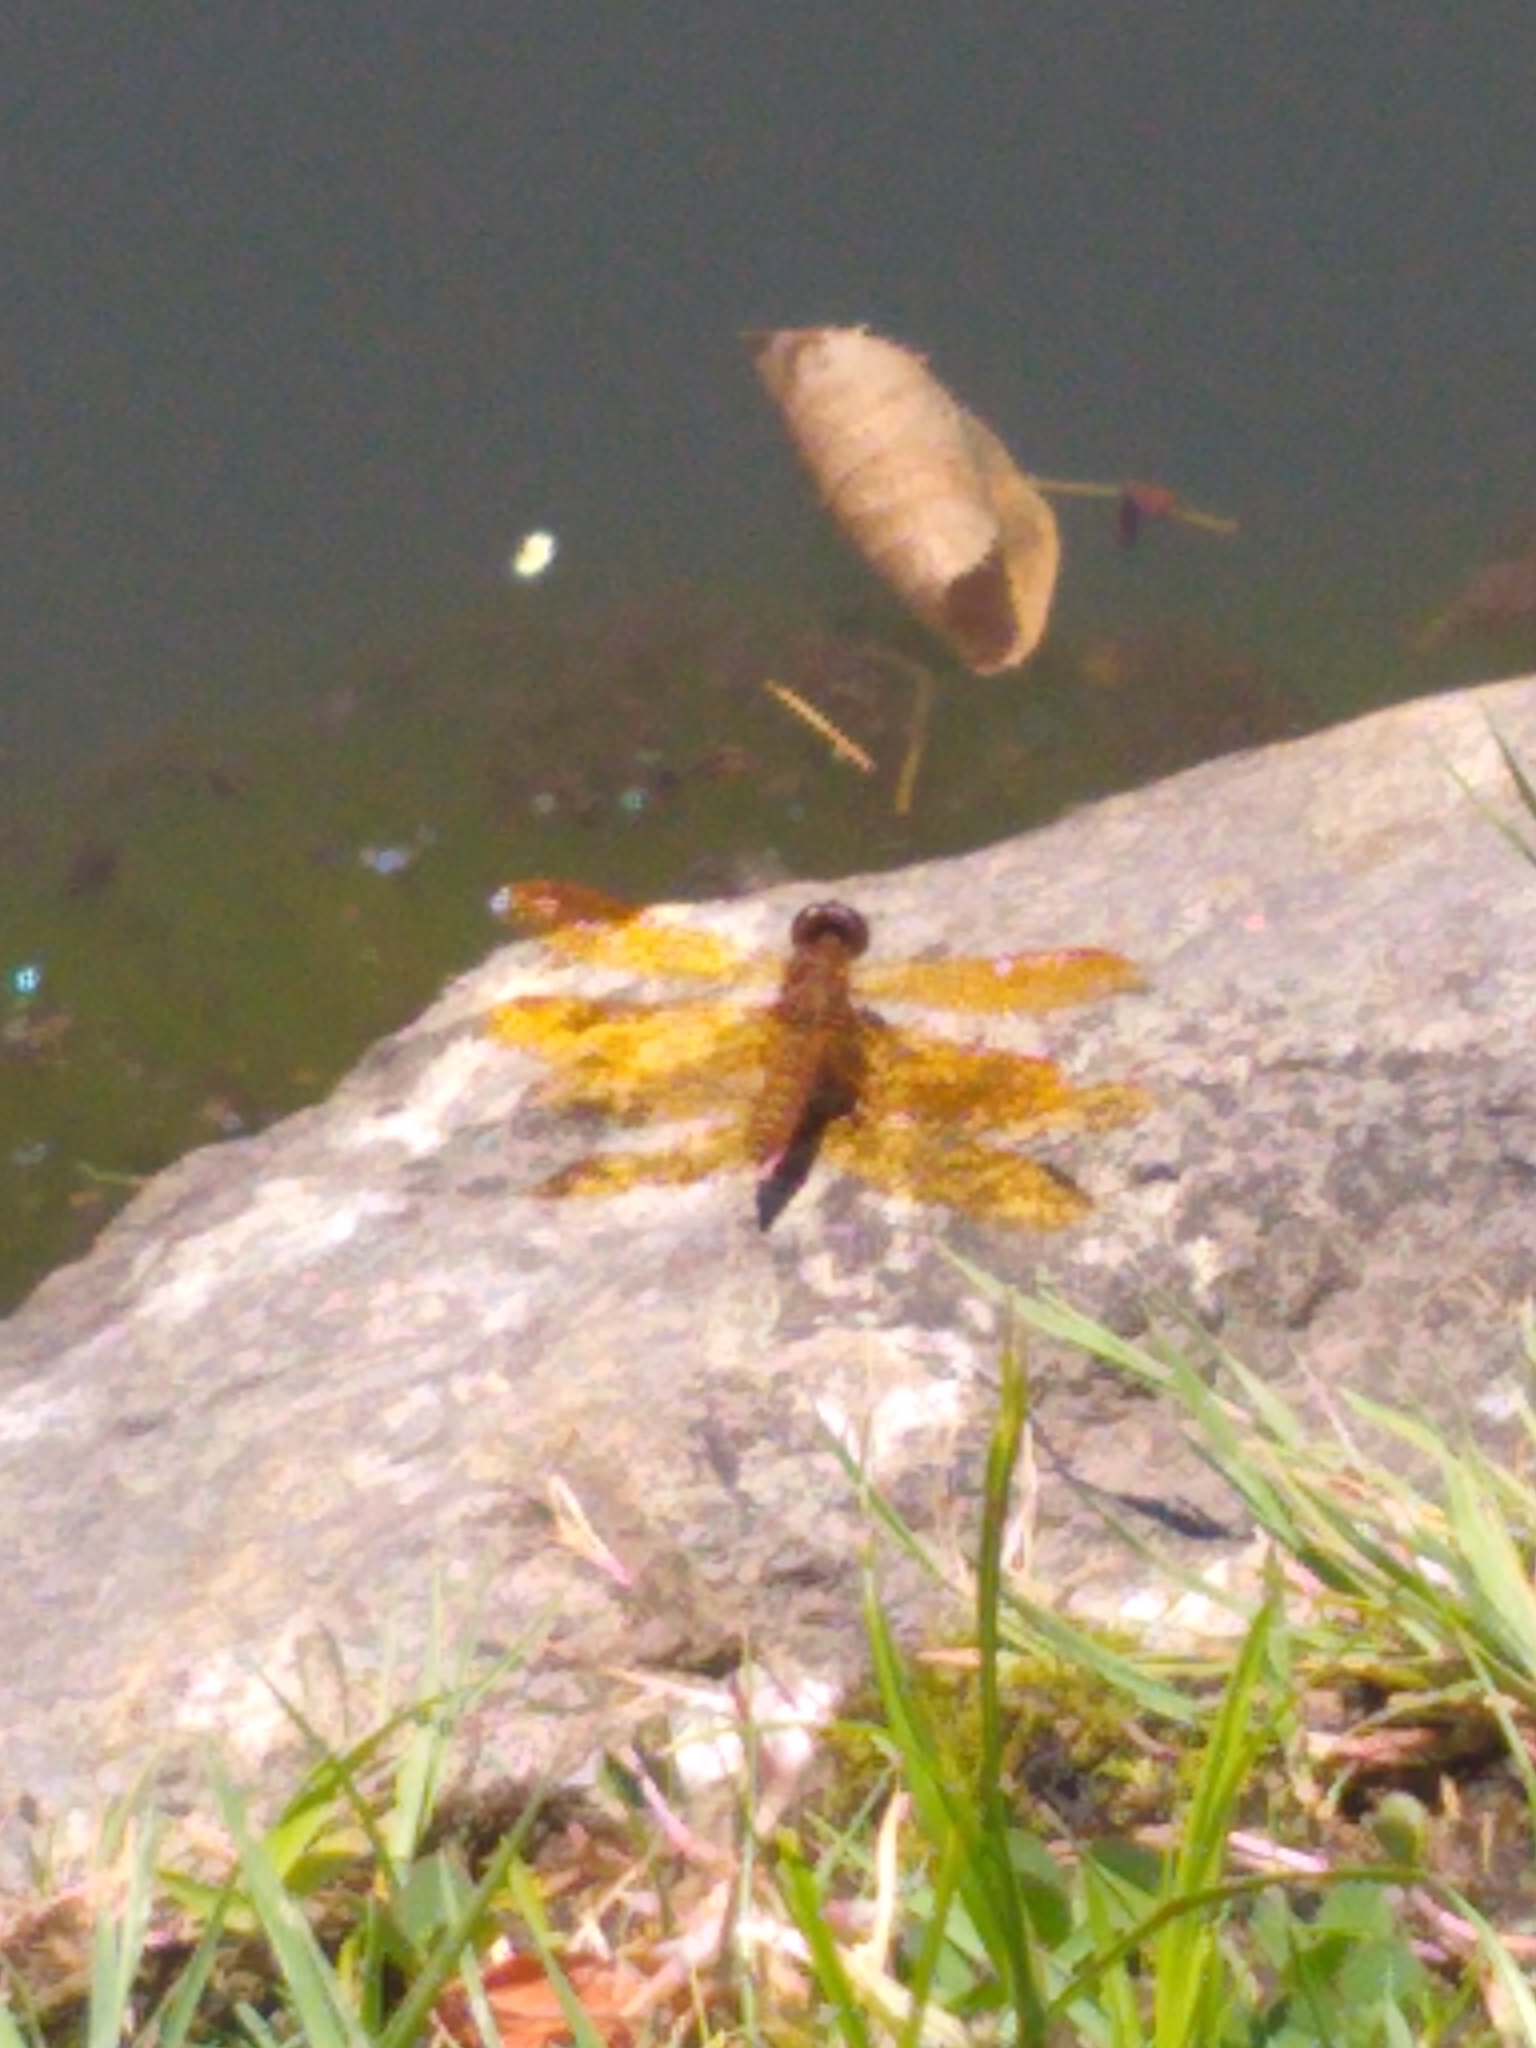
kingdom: Animalia
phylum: Arthropoda
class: Insecta
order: Odonata
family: Libellulidae
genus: Perithemis
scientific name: Perithemis tenera
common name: Eastern amberwing
